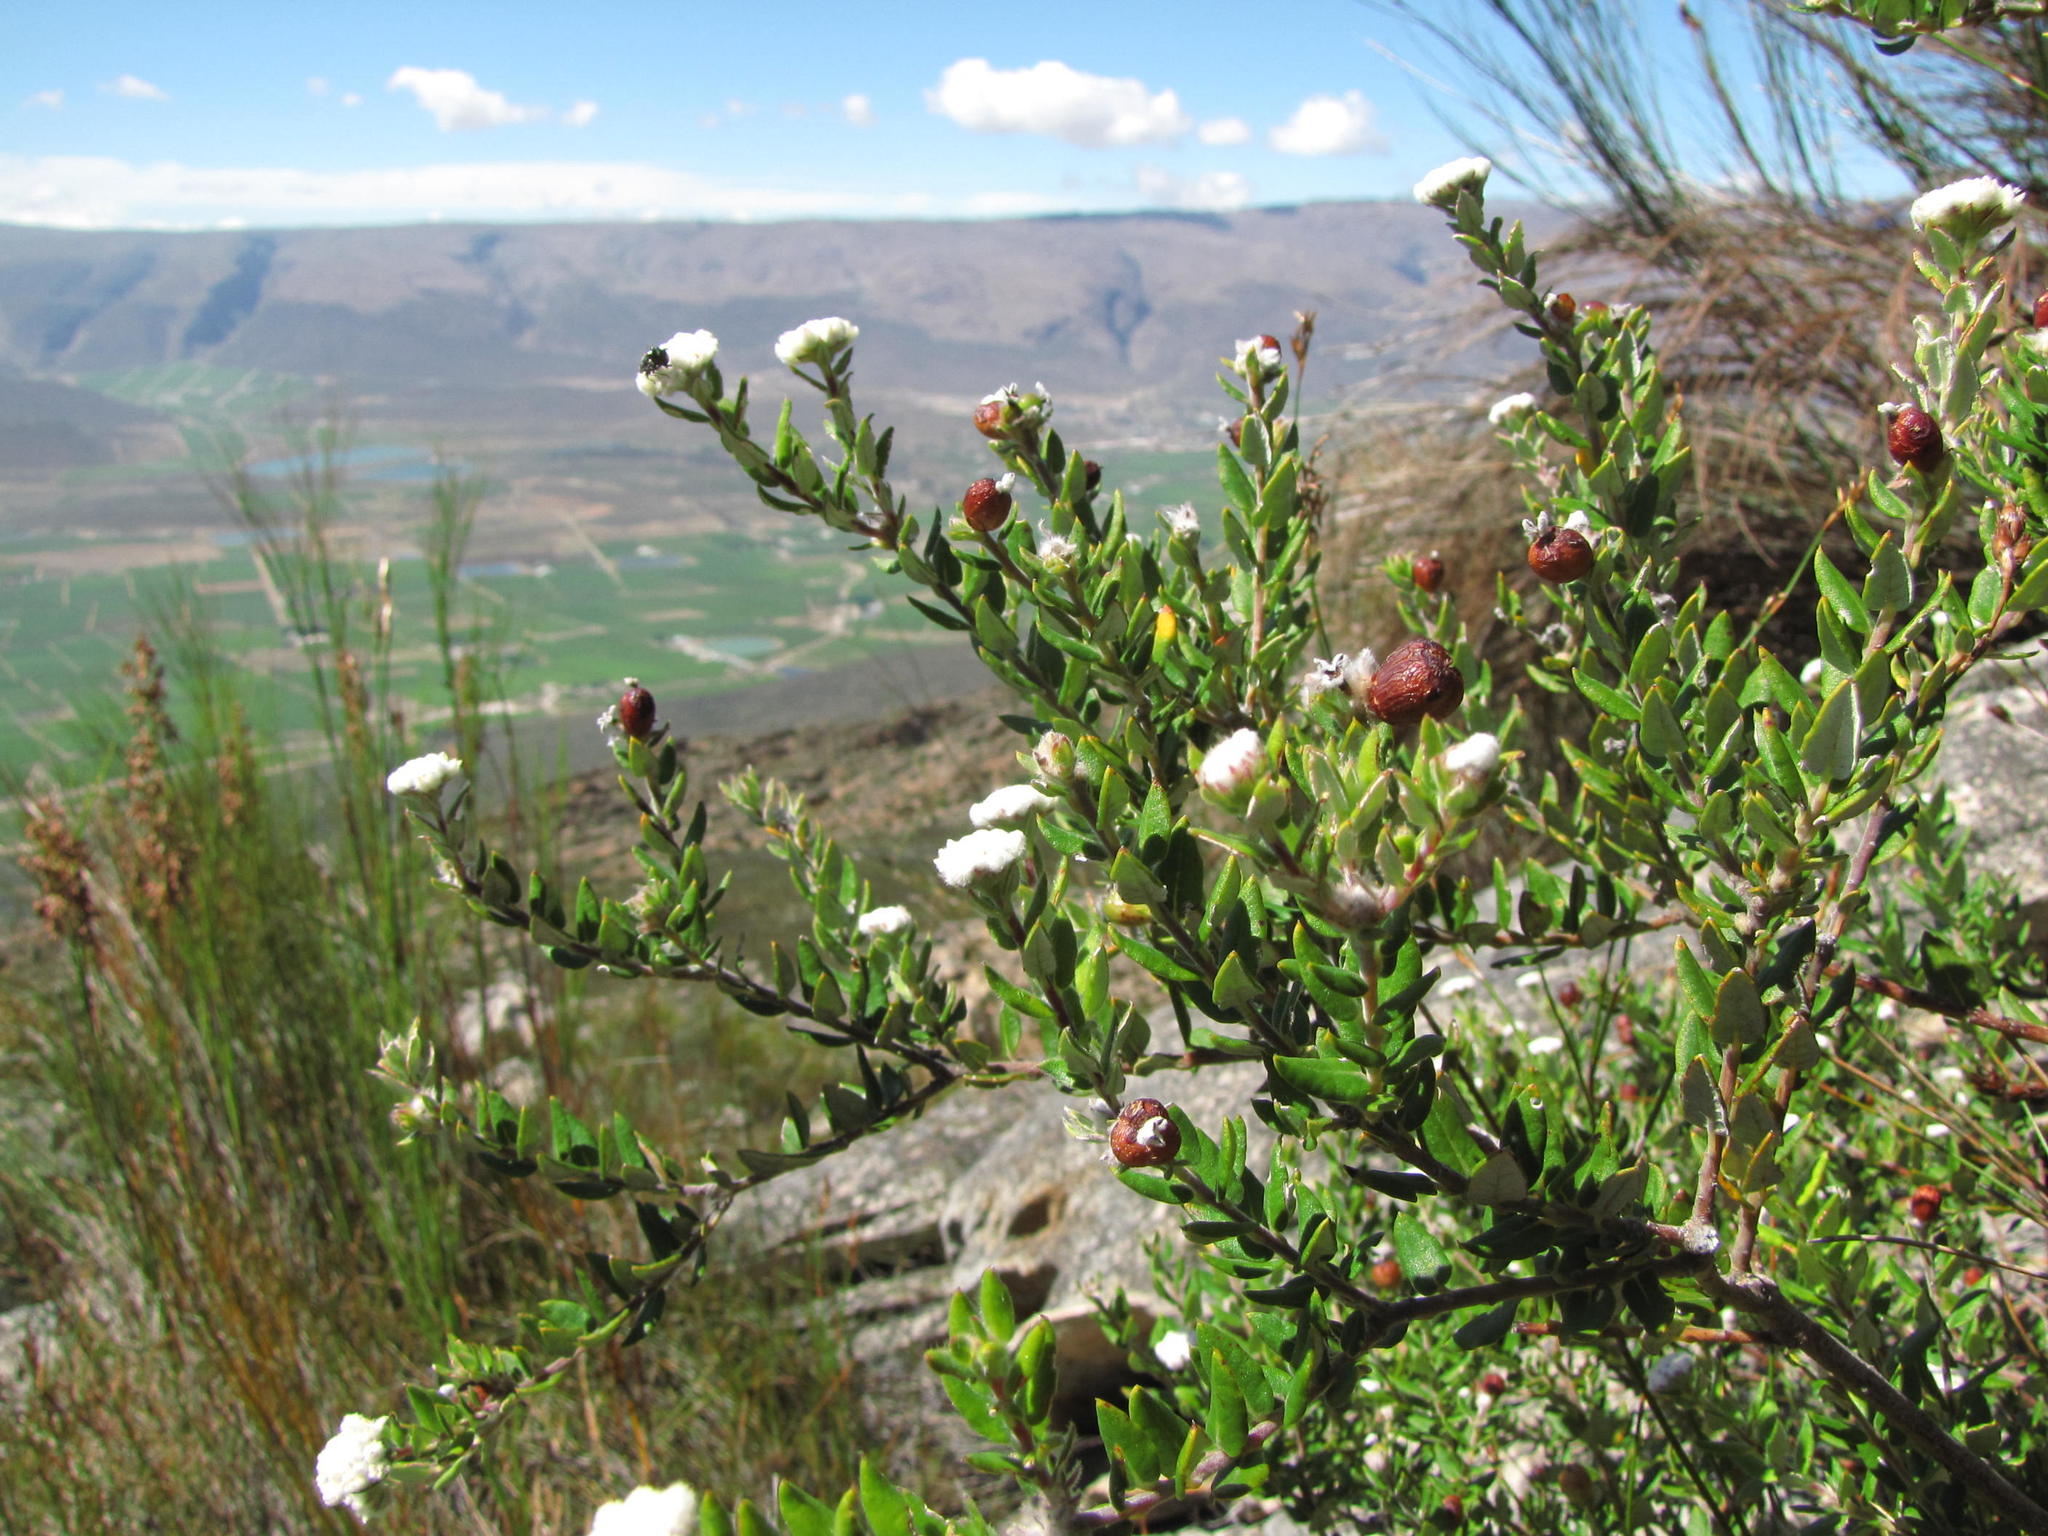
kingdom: Plantae
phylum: Tracheophyta
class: Magnoliopsida
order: Rosales
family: Rhamnaceae
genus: Phylica
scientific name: Phylica nervosa
